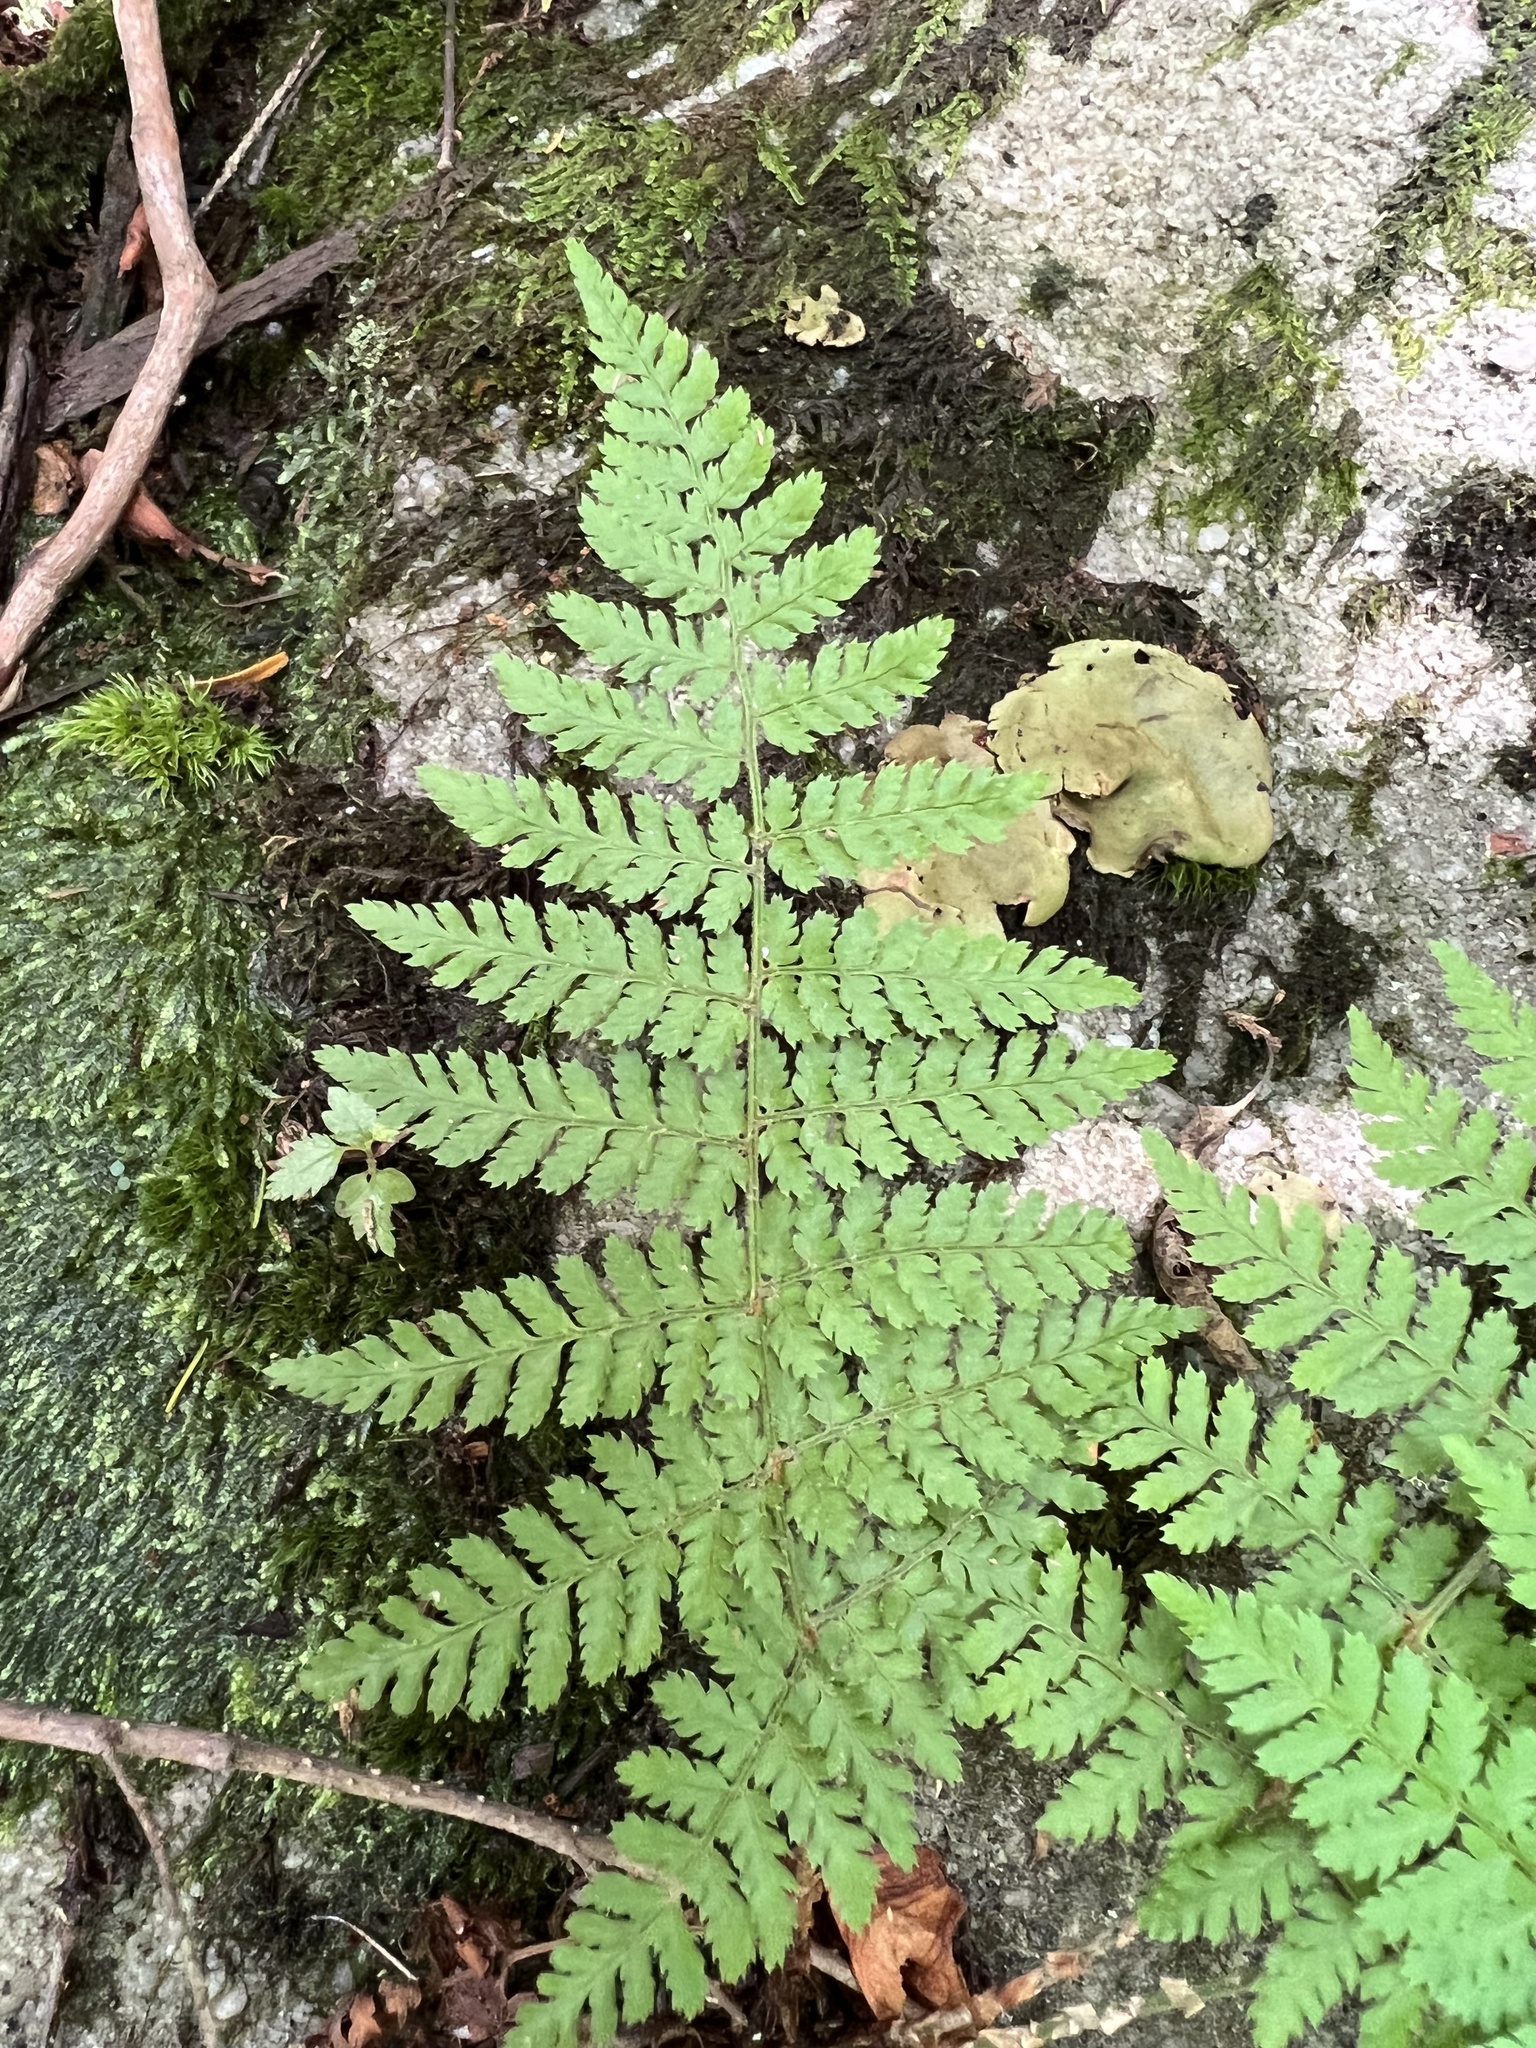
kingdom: Plantae
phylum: Tracheophyta
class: Polypodiopsida
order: Polypodiales
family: Dryopteridaceae
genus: Dryopteris
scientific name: Dryopteris intermedia
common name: Evergreen wood fern
